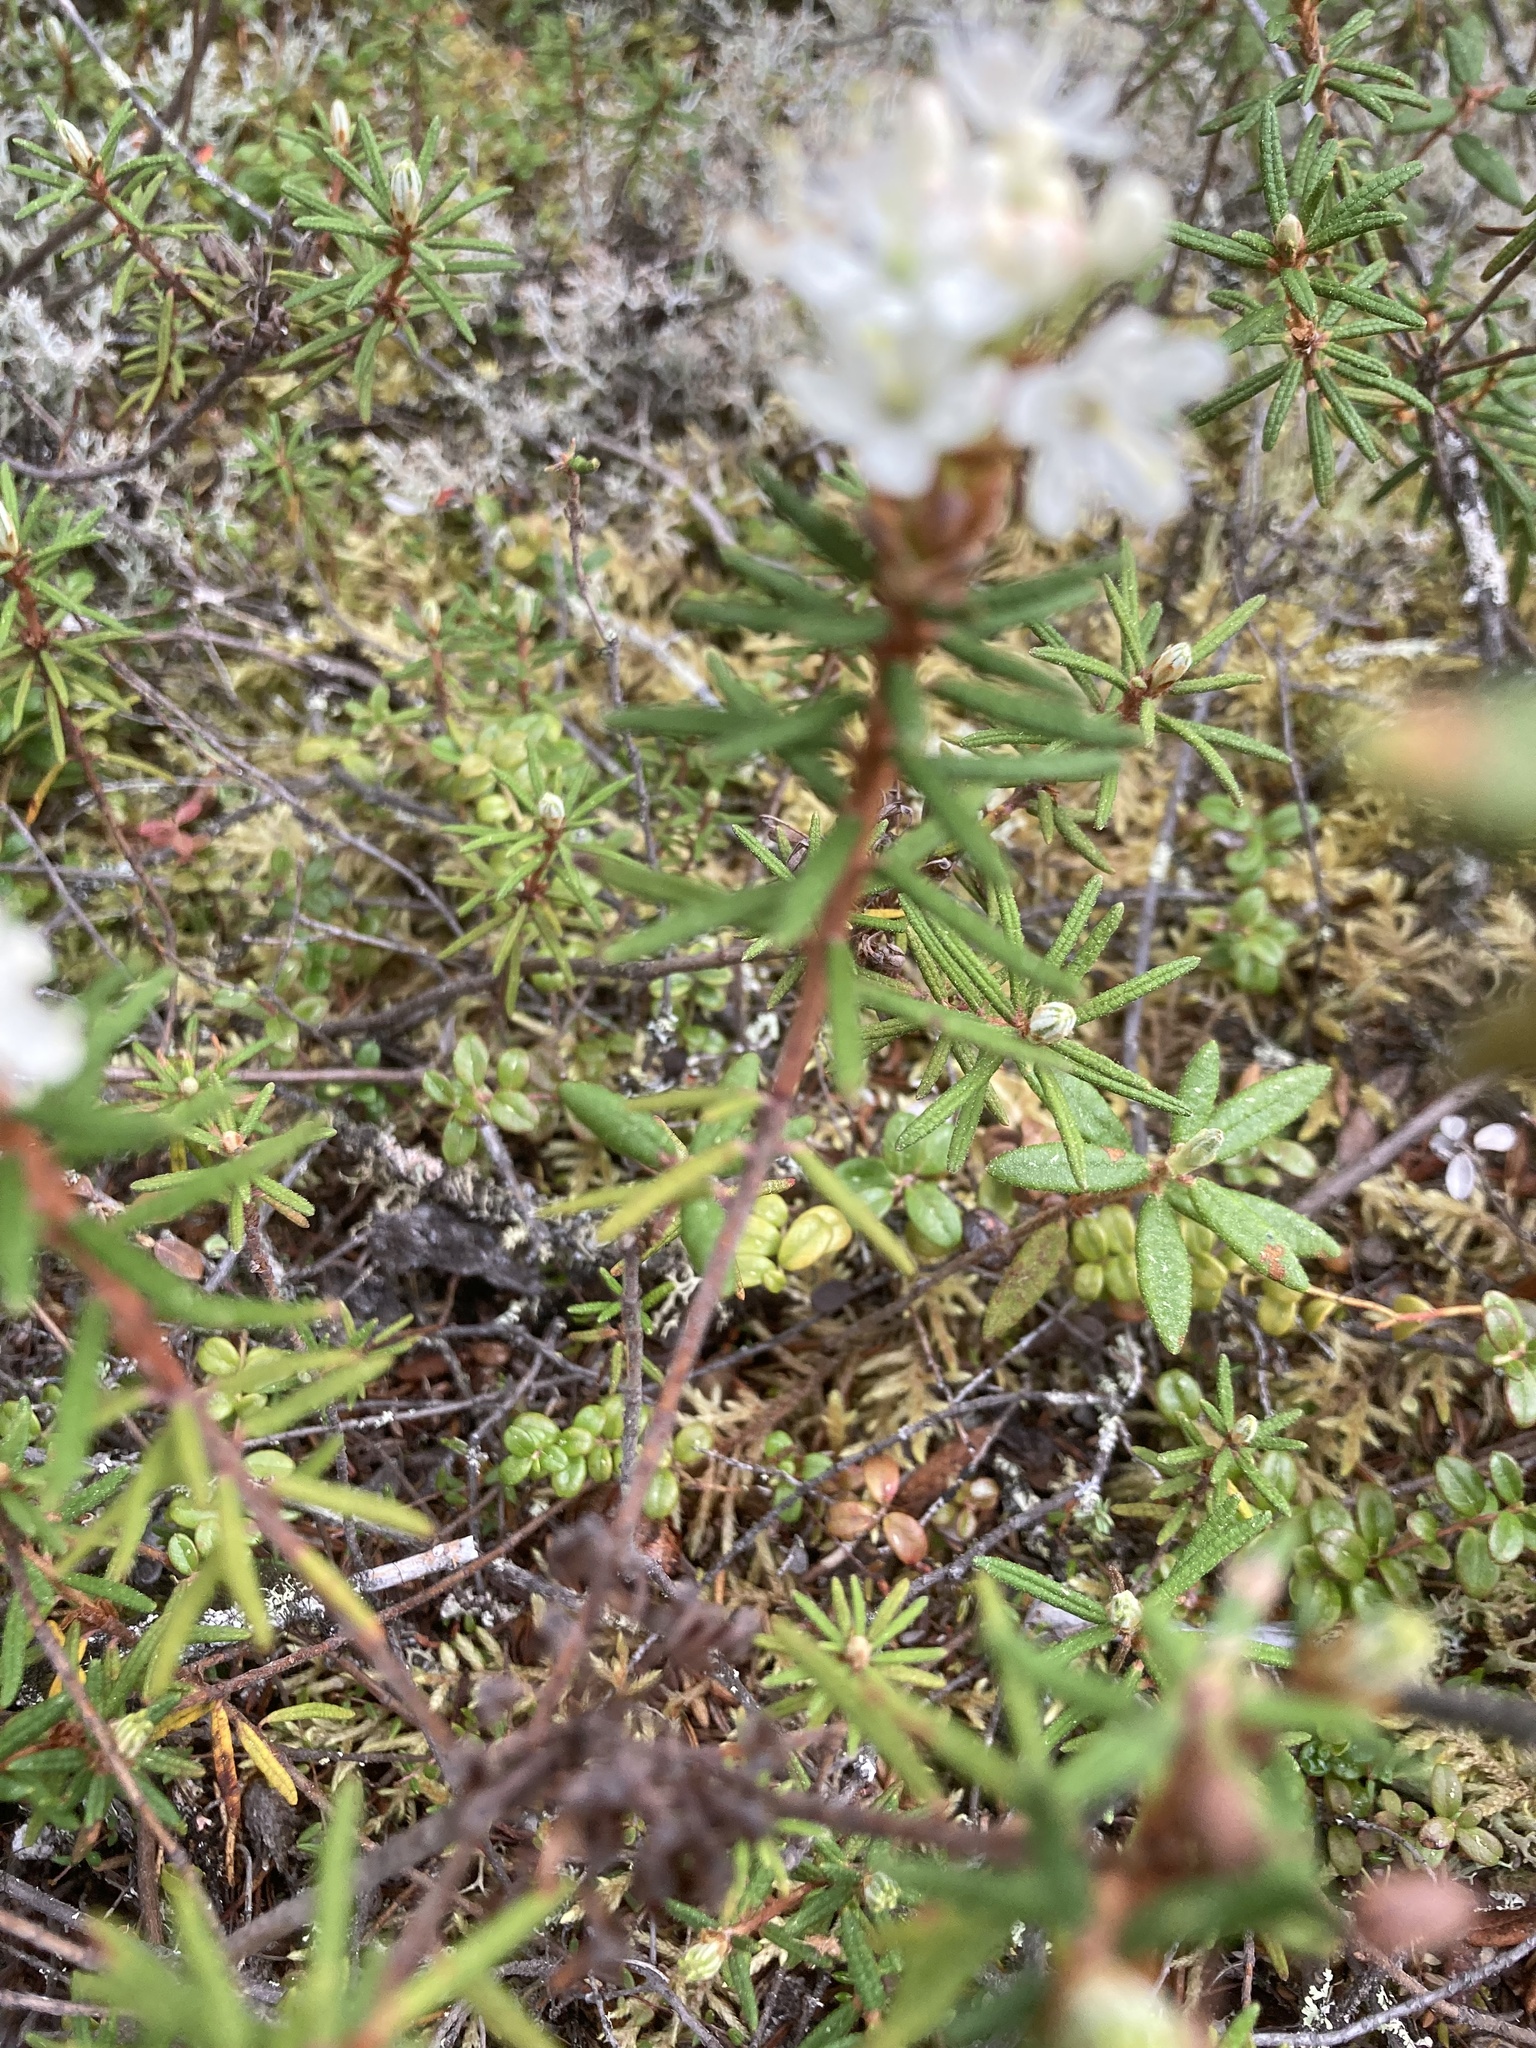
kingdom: Plantae
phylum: Tracheophyta
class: Magnoliopsida
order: Ericales
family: Ericaceae
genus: Rhododendron
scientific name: Rhododendron tomentosum
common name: Marsh labrador tea
